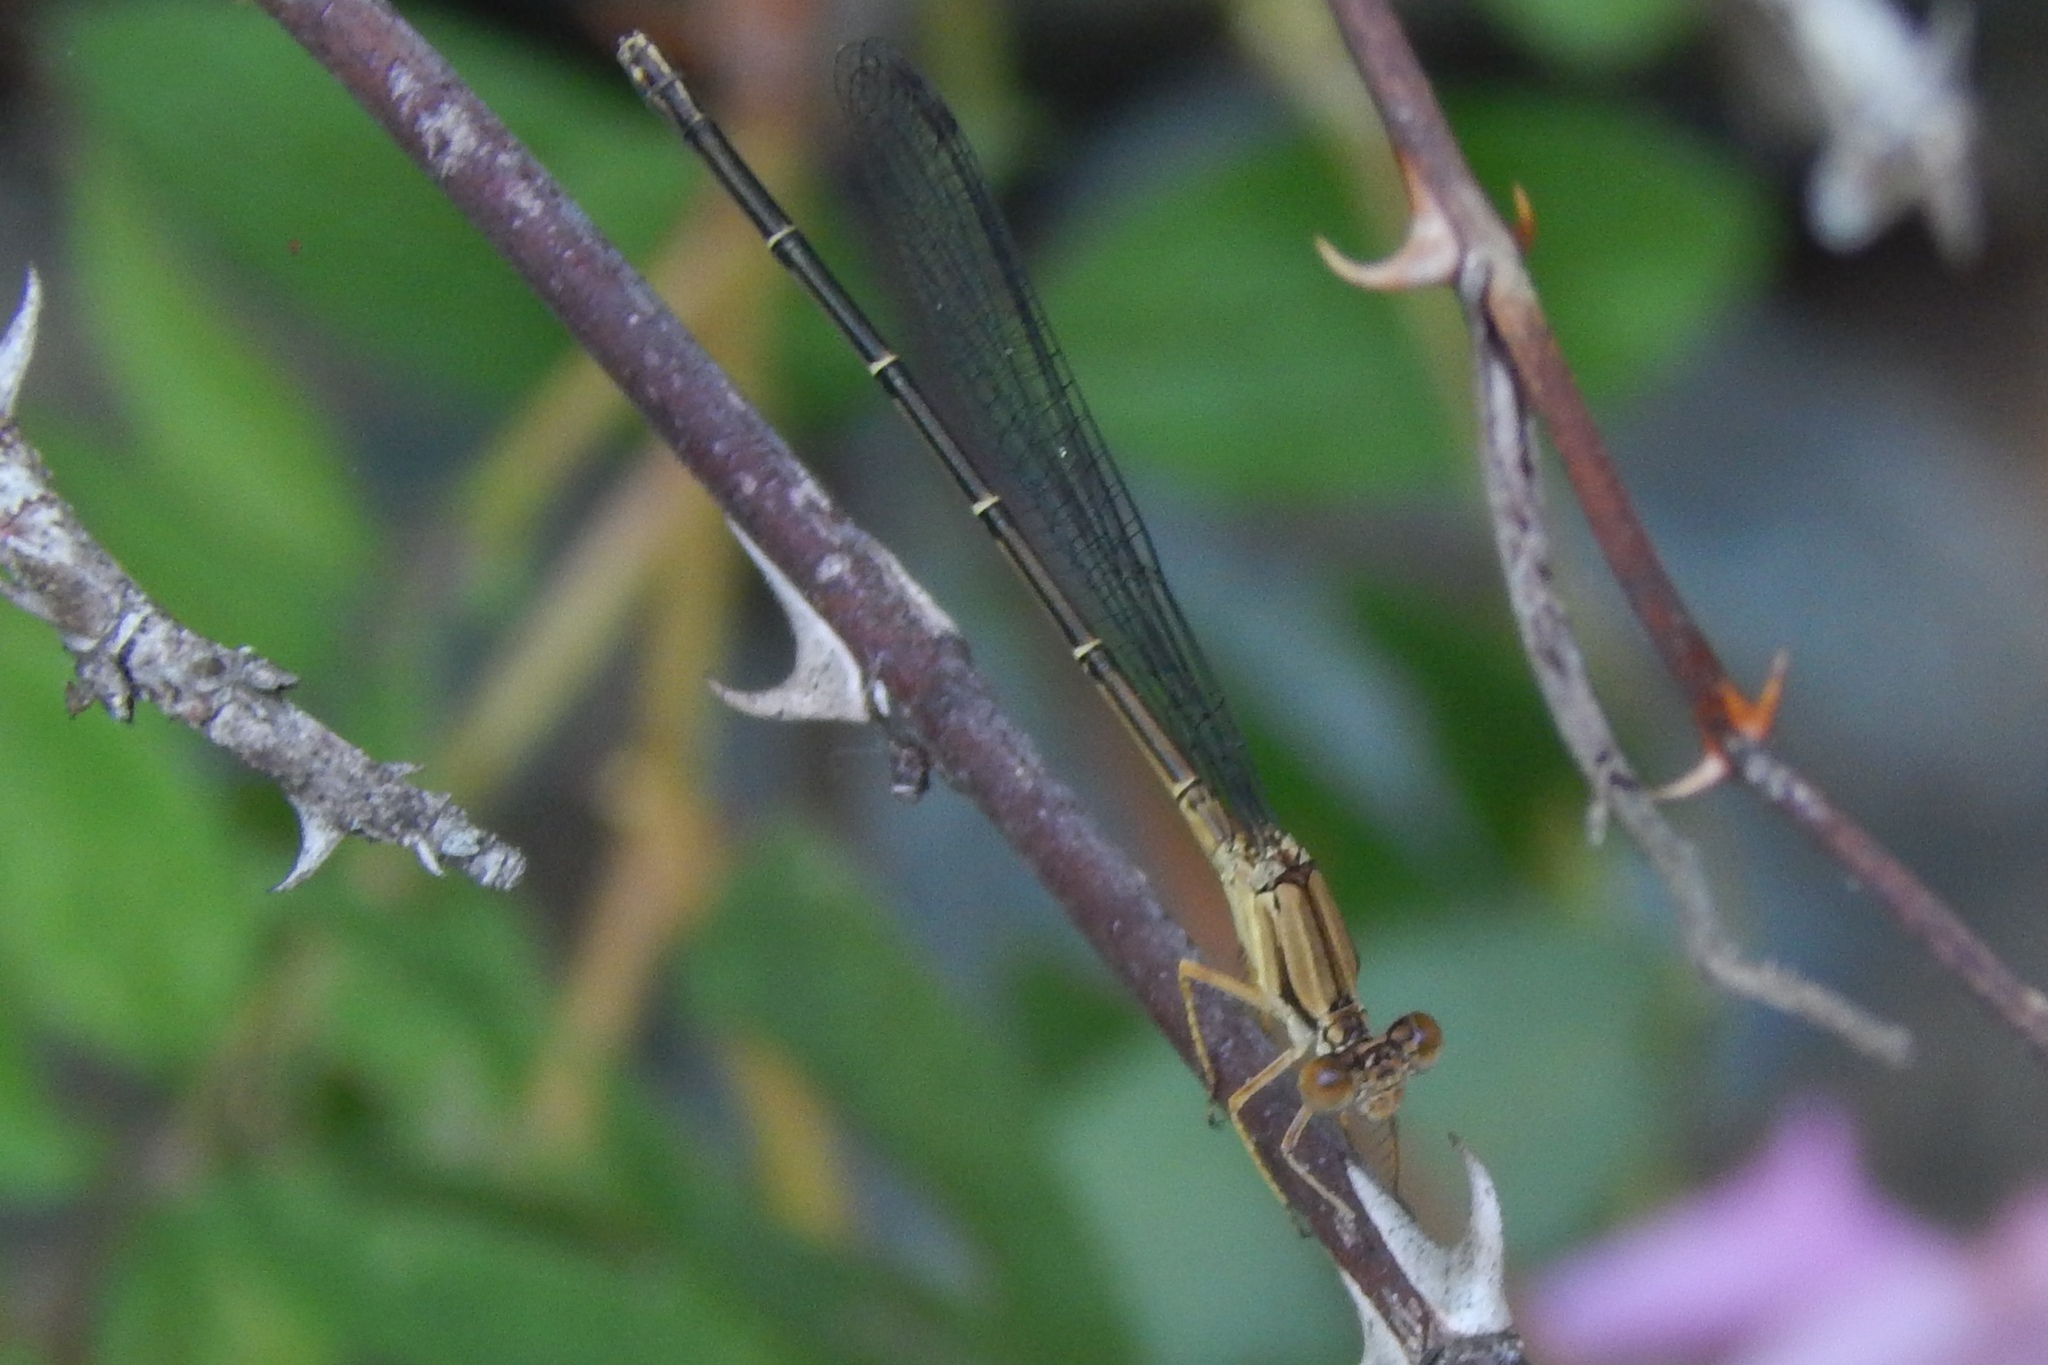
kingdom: Animalia
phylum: Arthropoda
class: Insecta
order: Odonata
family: Coenagrionidae
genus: Argia
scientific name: Argia apicalis
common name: Blue-fronted dancer
